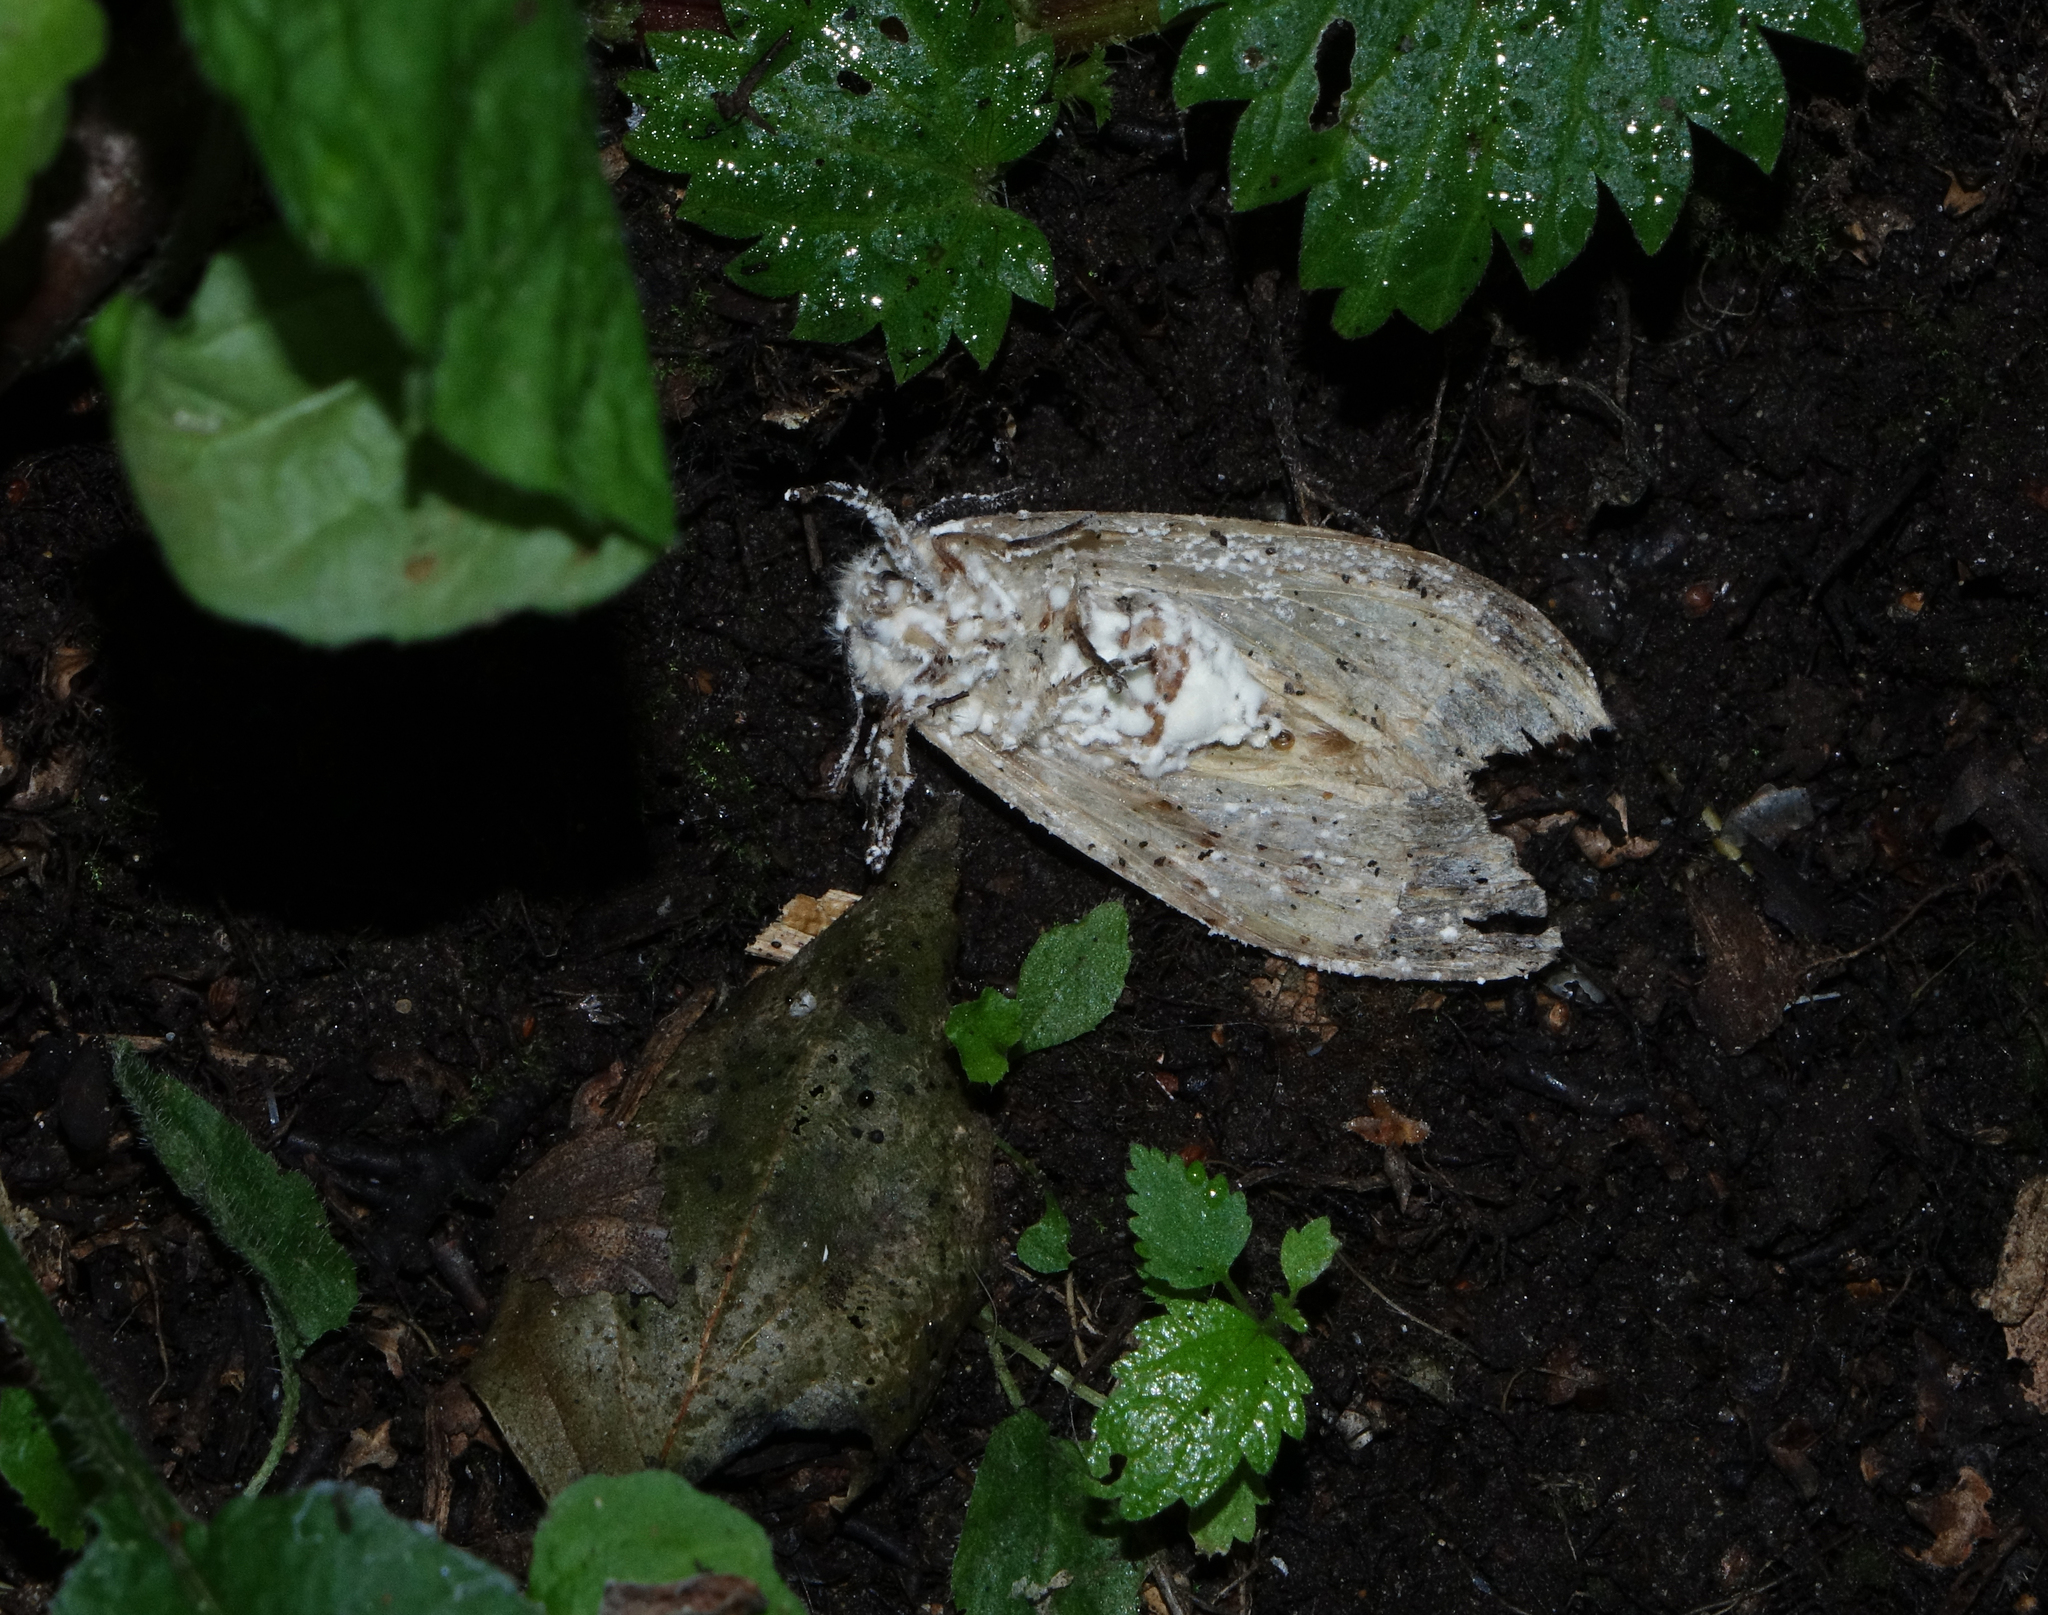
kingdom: Animalia
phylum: Arthropoda
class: Insecta
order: Lepidoptera
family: Erebidae
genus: Lymantria
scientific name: Lymantria dispar
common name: Gypsy moth
